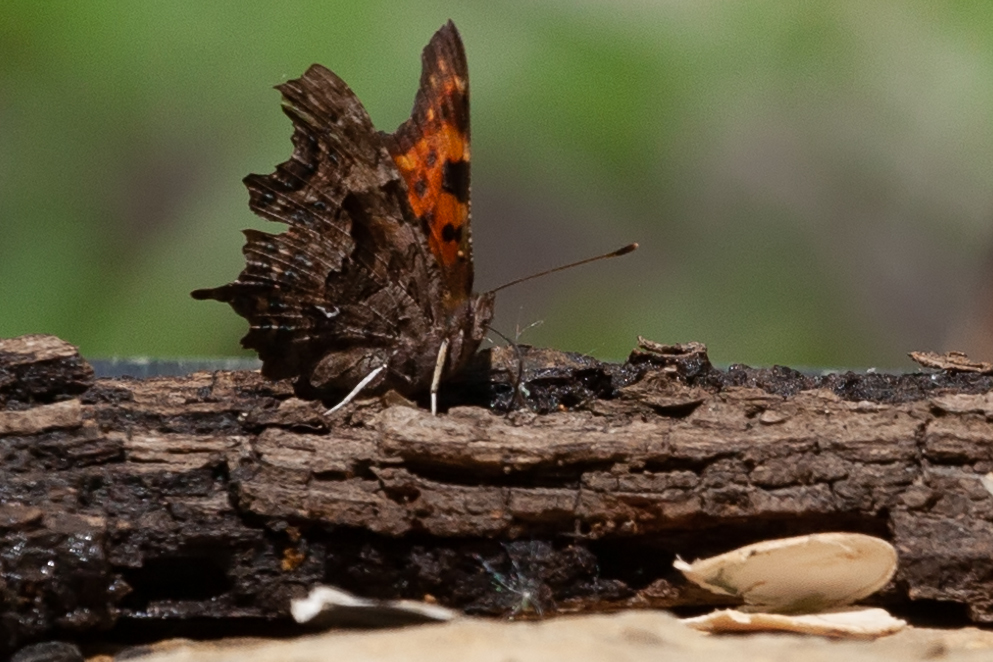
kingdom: Animalia
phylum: Arthropoda
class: Insecta
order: Lepidoptera
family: Nymphalidae
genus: Polygonia
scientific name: Polygonia c-album
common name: Comma
